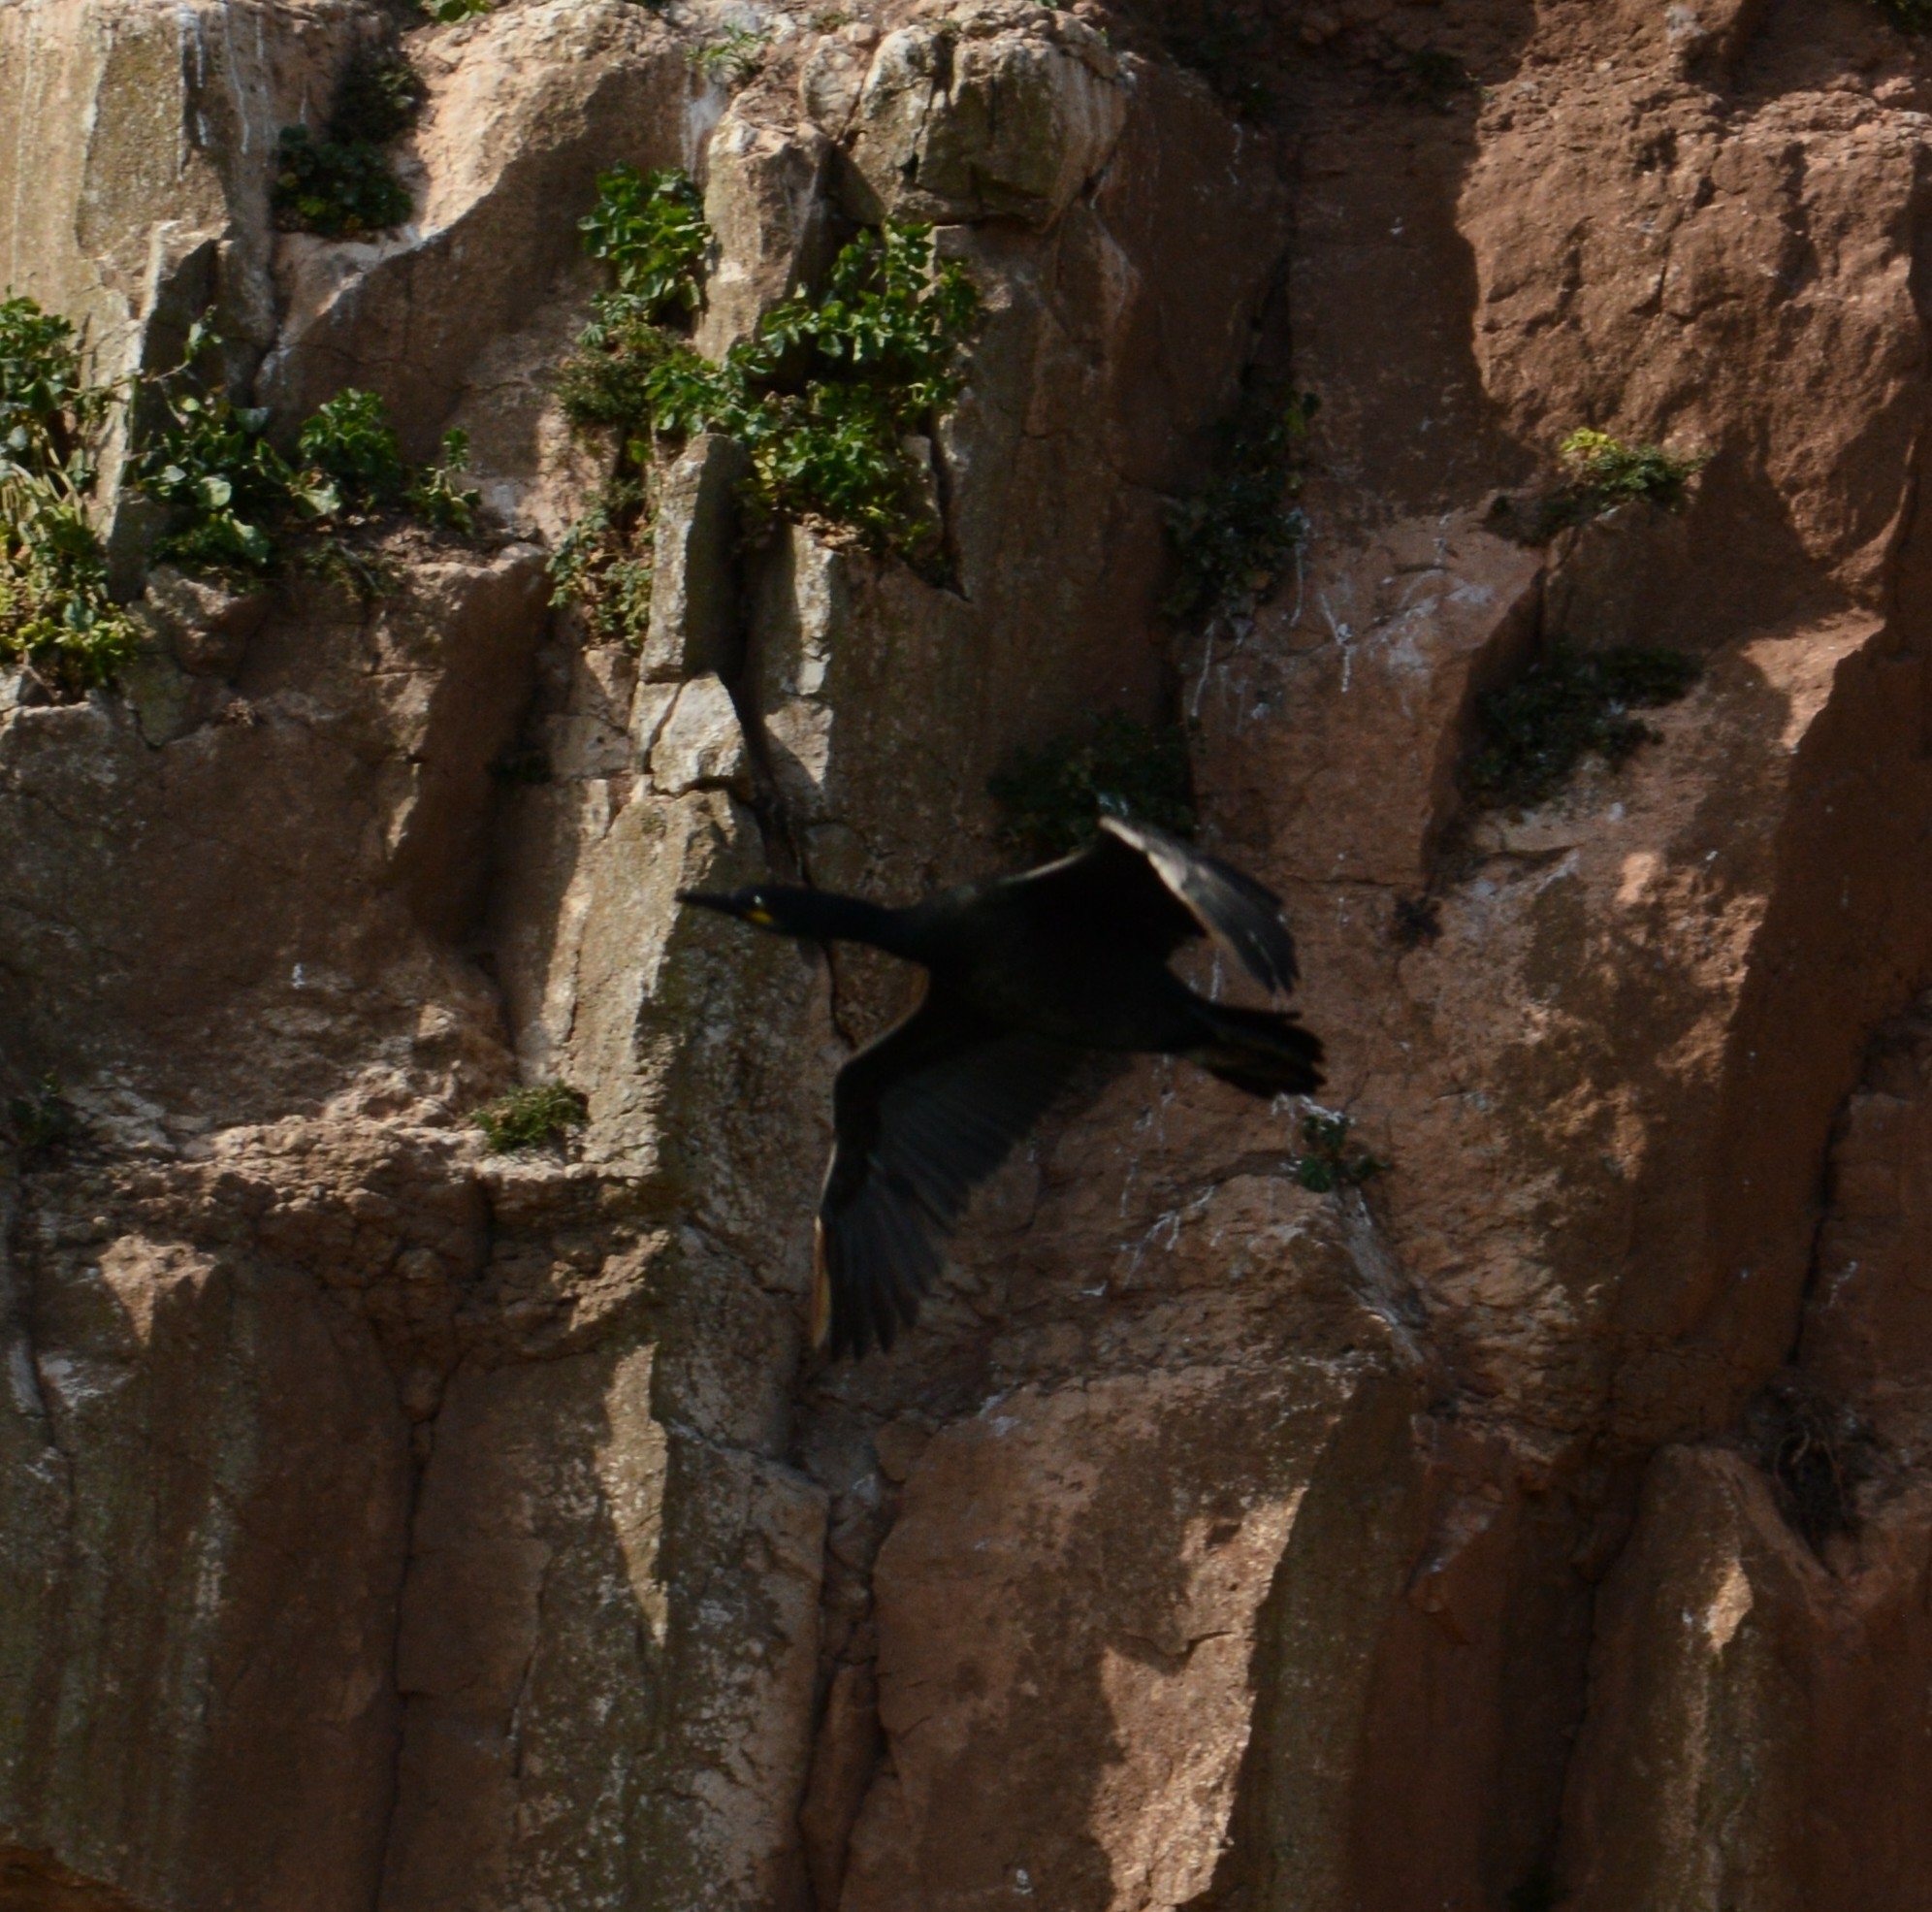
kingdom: Animalia
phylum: Chordata
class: Aves
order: Suliformes
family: Phalacrocoracidae
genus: Phalacrocorax
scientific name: Phalacrocorax aristotelis
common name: European shag
